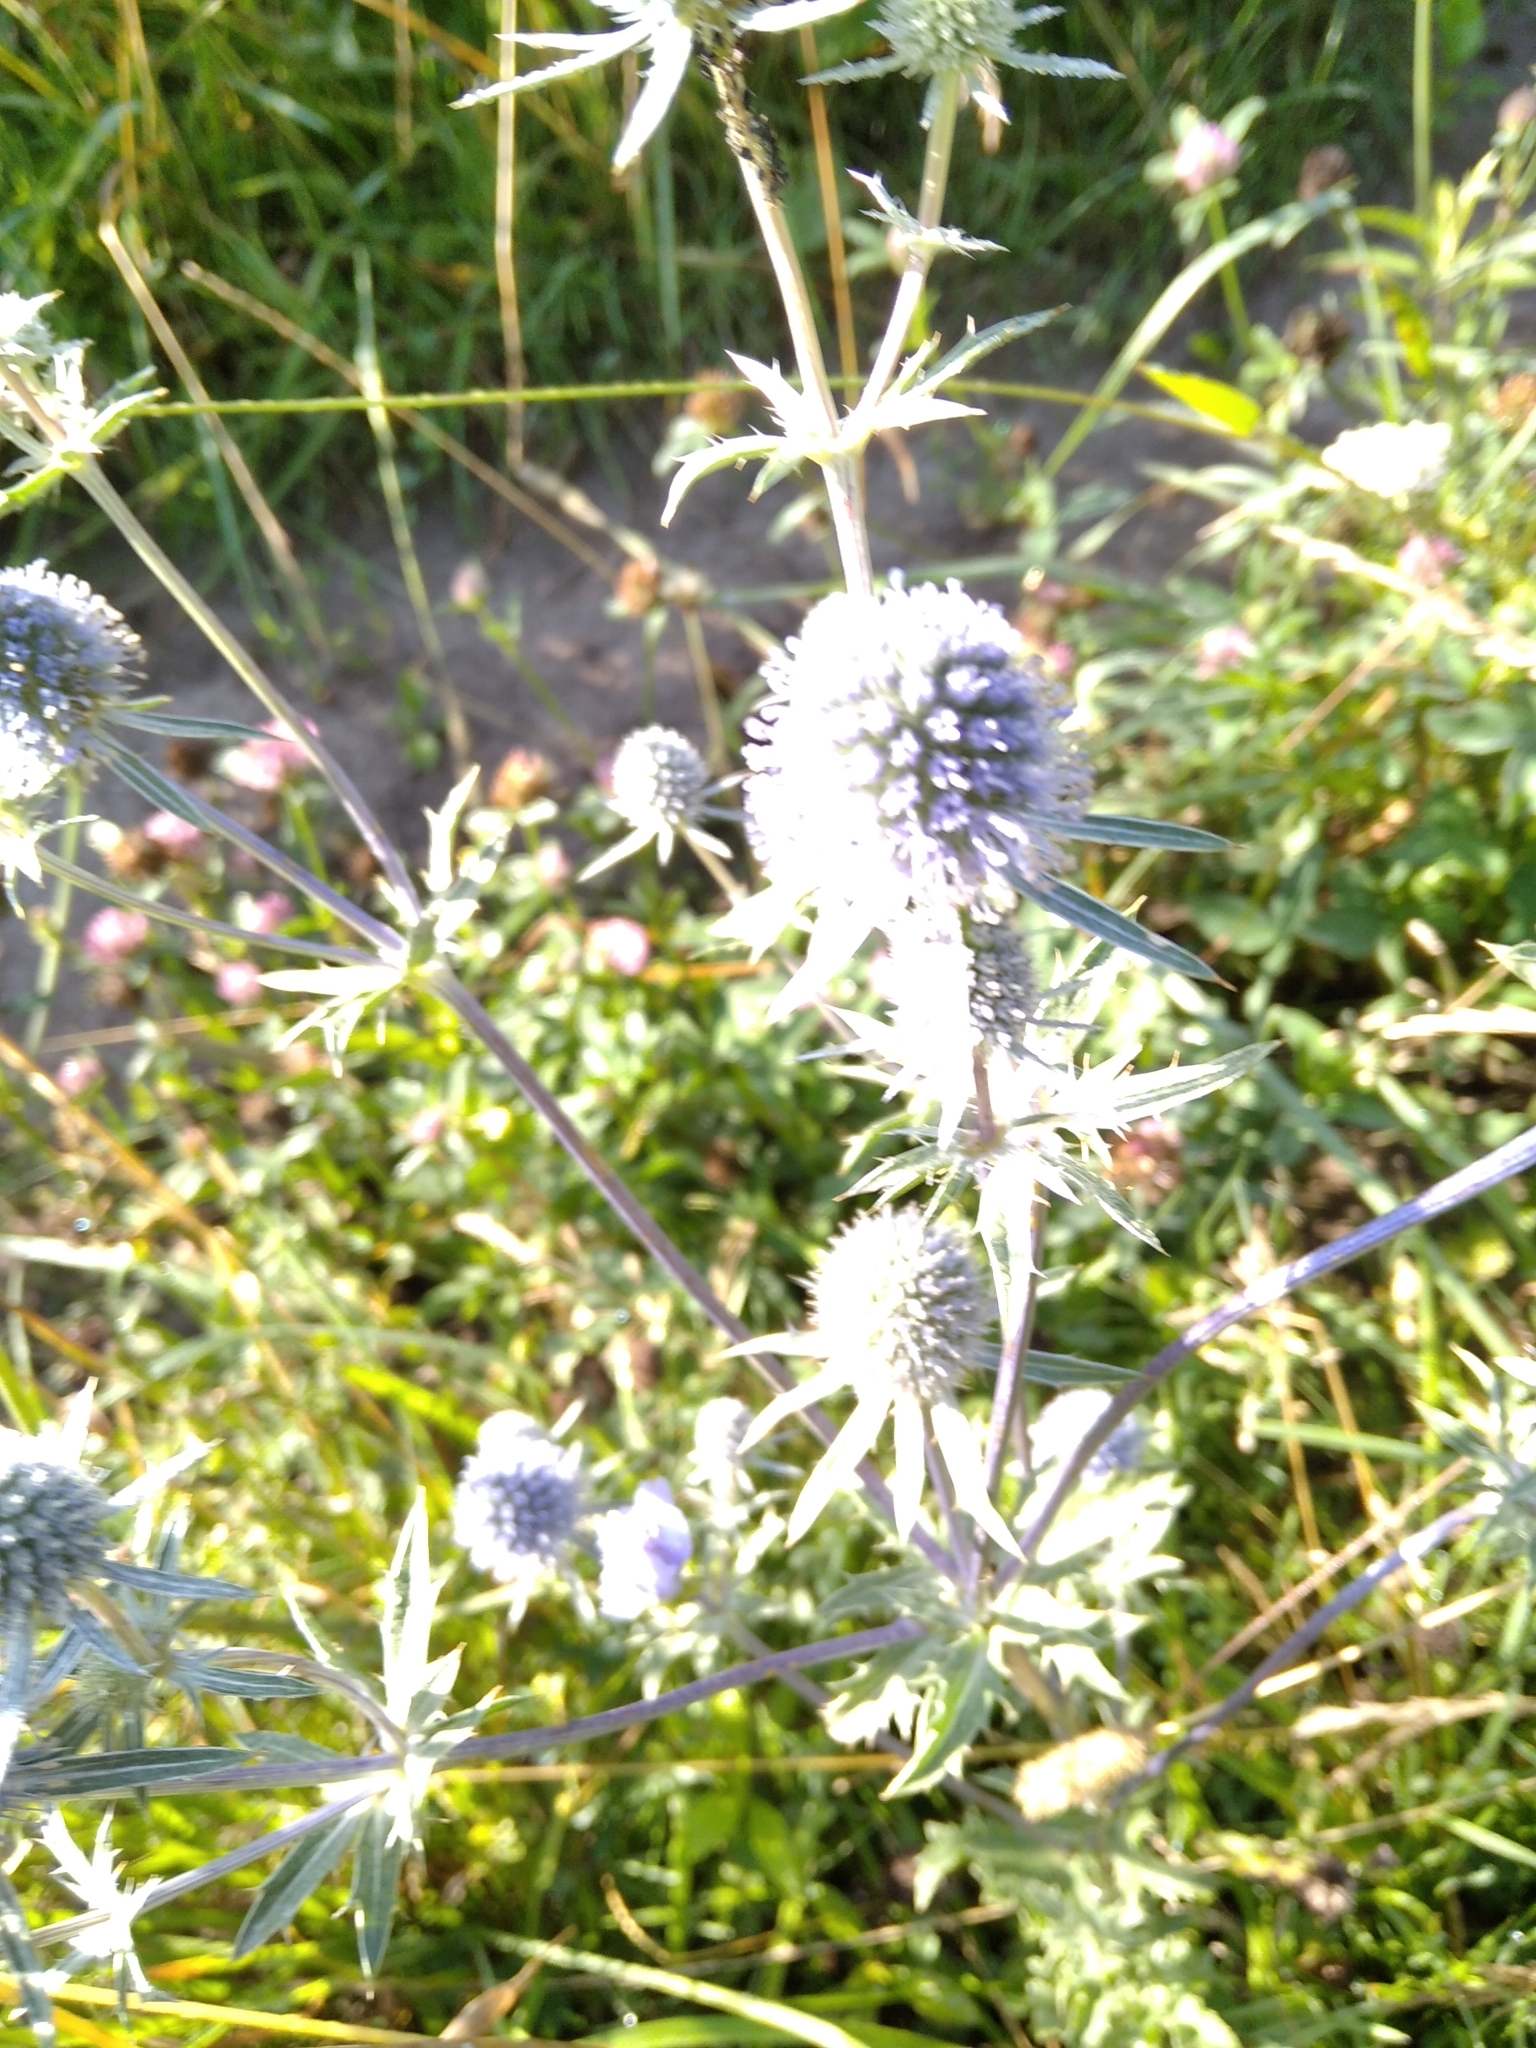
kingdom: Plantae
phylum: Tracheophyta
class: Magnoliopsida
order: Apiales
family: Apiaceae
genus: Eryngium
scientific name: Eryngium planum
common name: Blue eryngo
